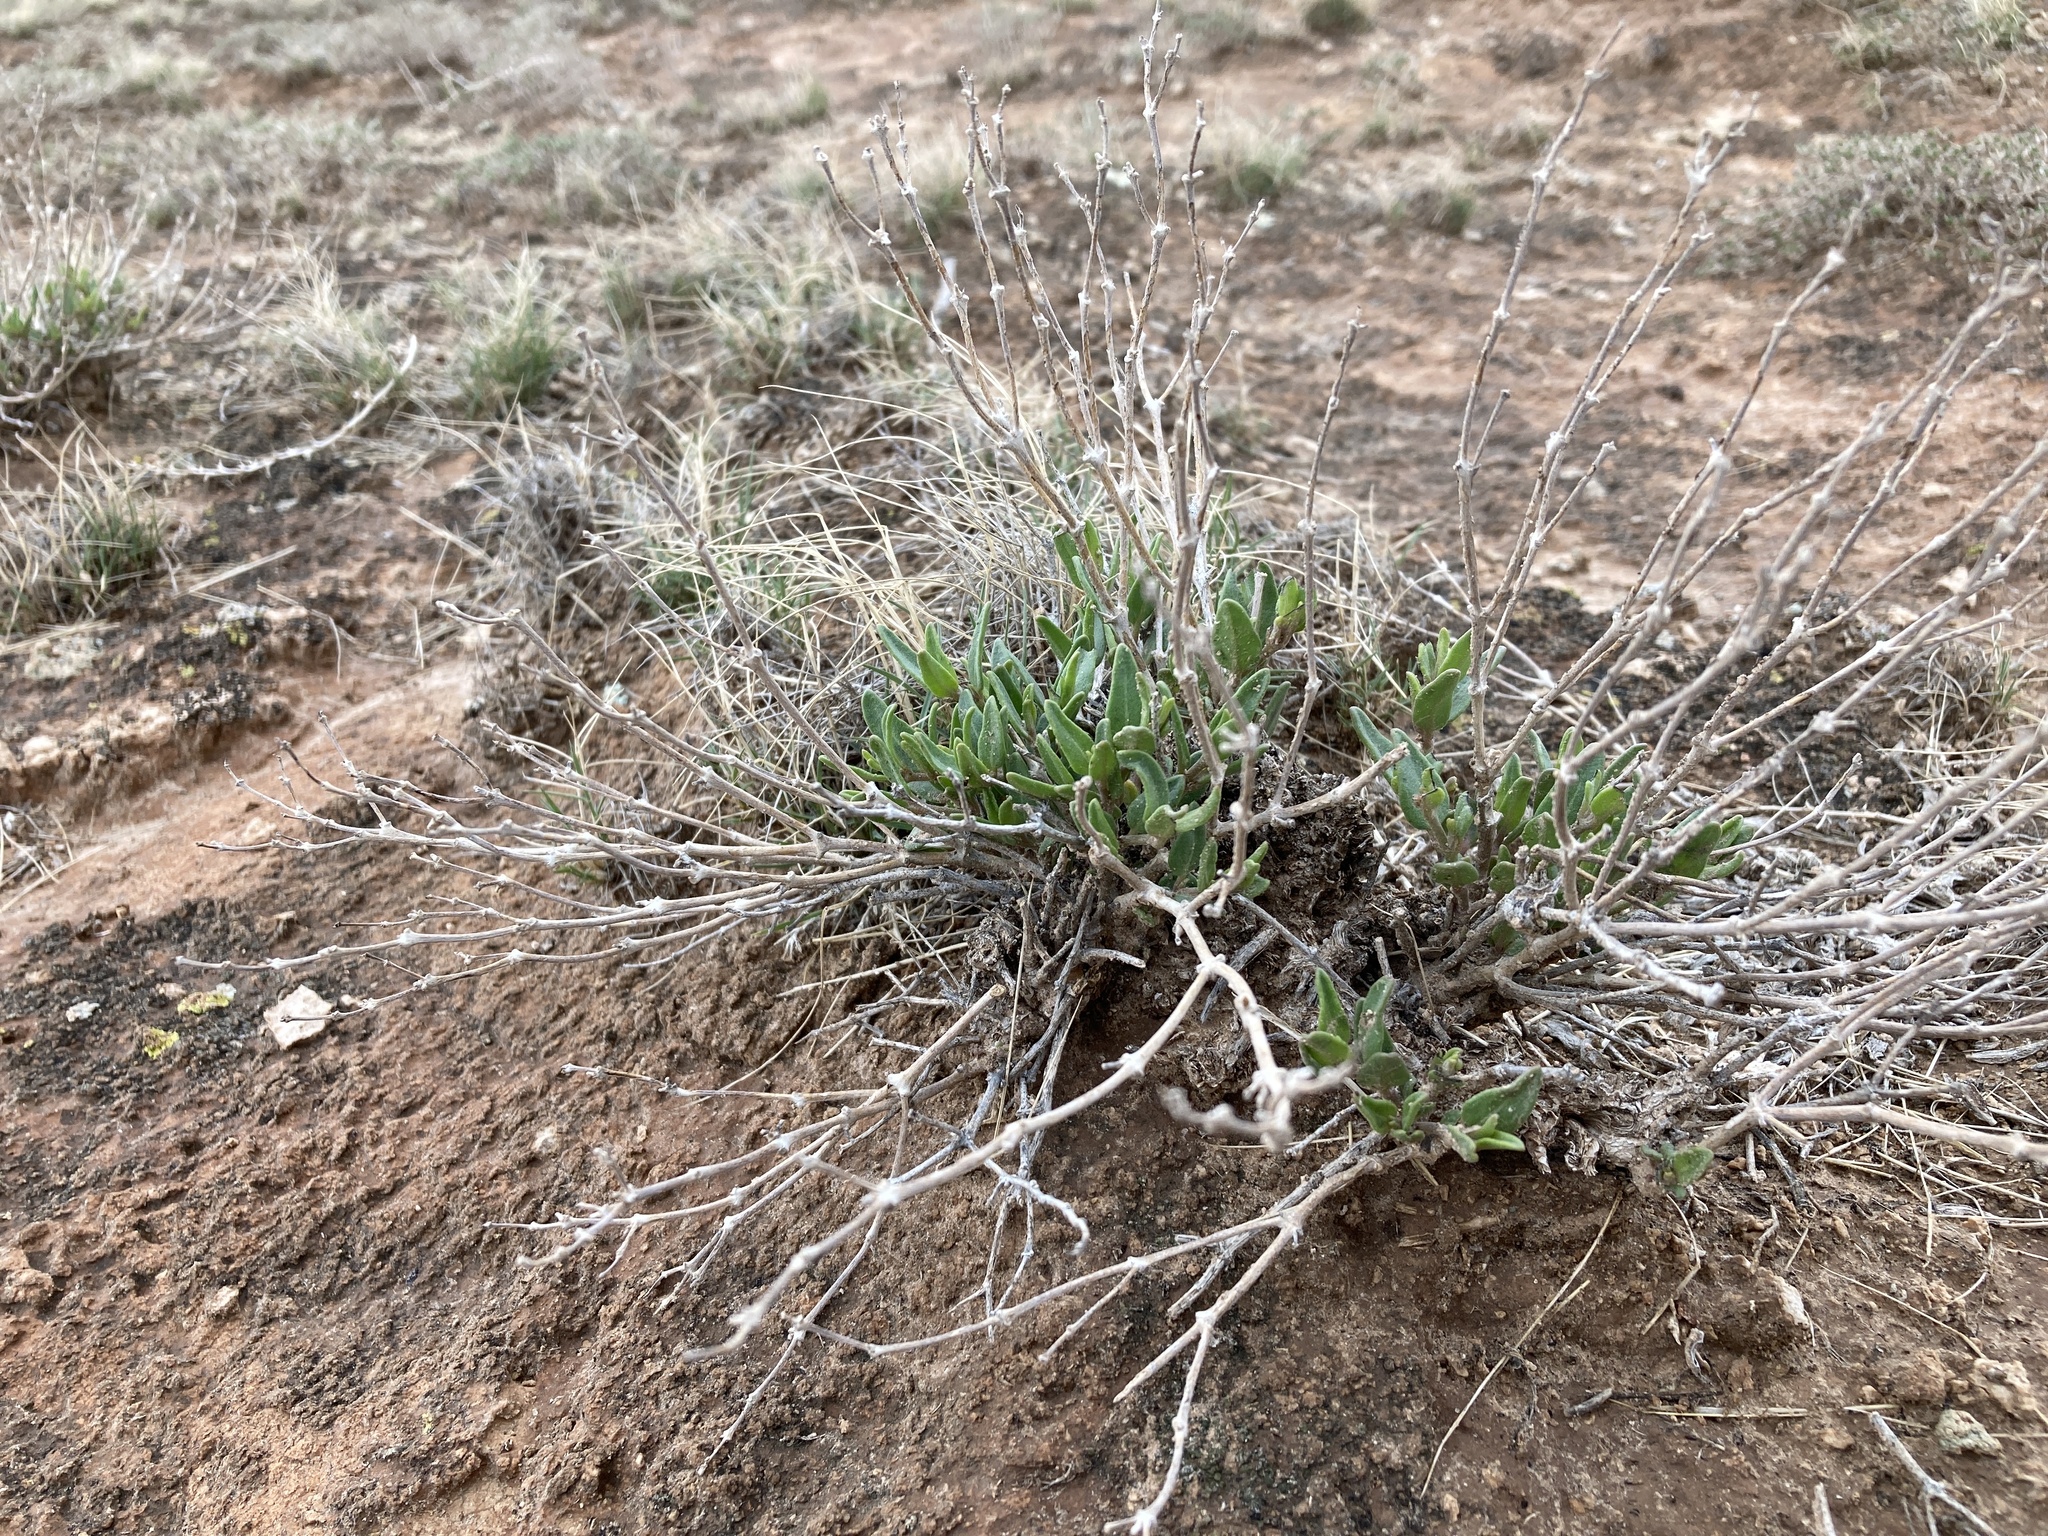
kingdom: Plantae
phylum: Tracheophyta
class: Magnoliopsida
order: Caryophyllales
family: Nyctaginaceae
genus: Acleisanthes
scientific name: Acleisanthes lanceolata
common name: Gypsum moonpod
